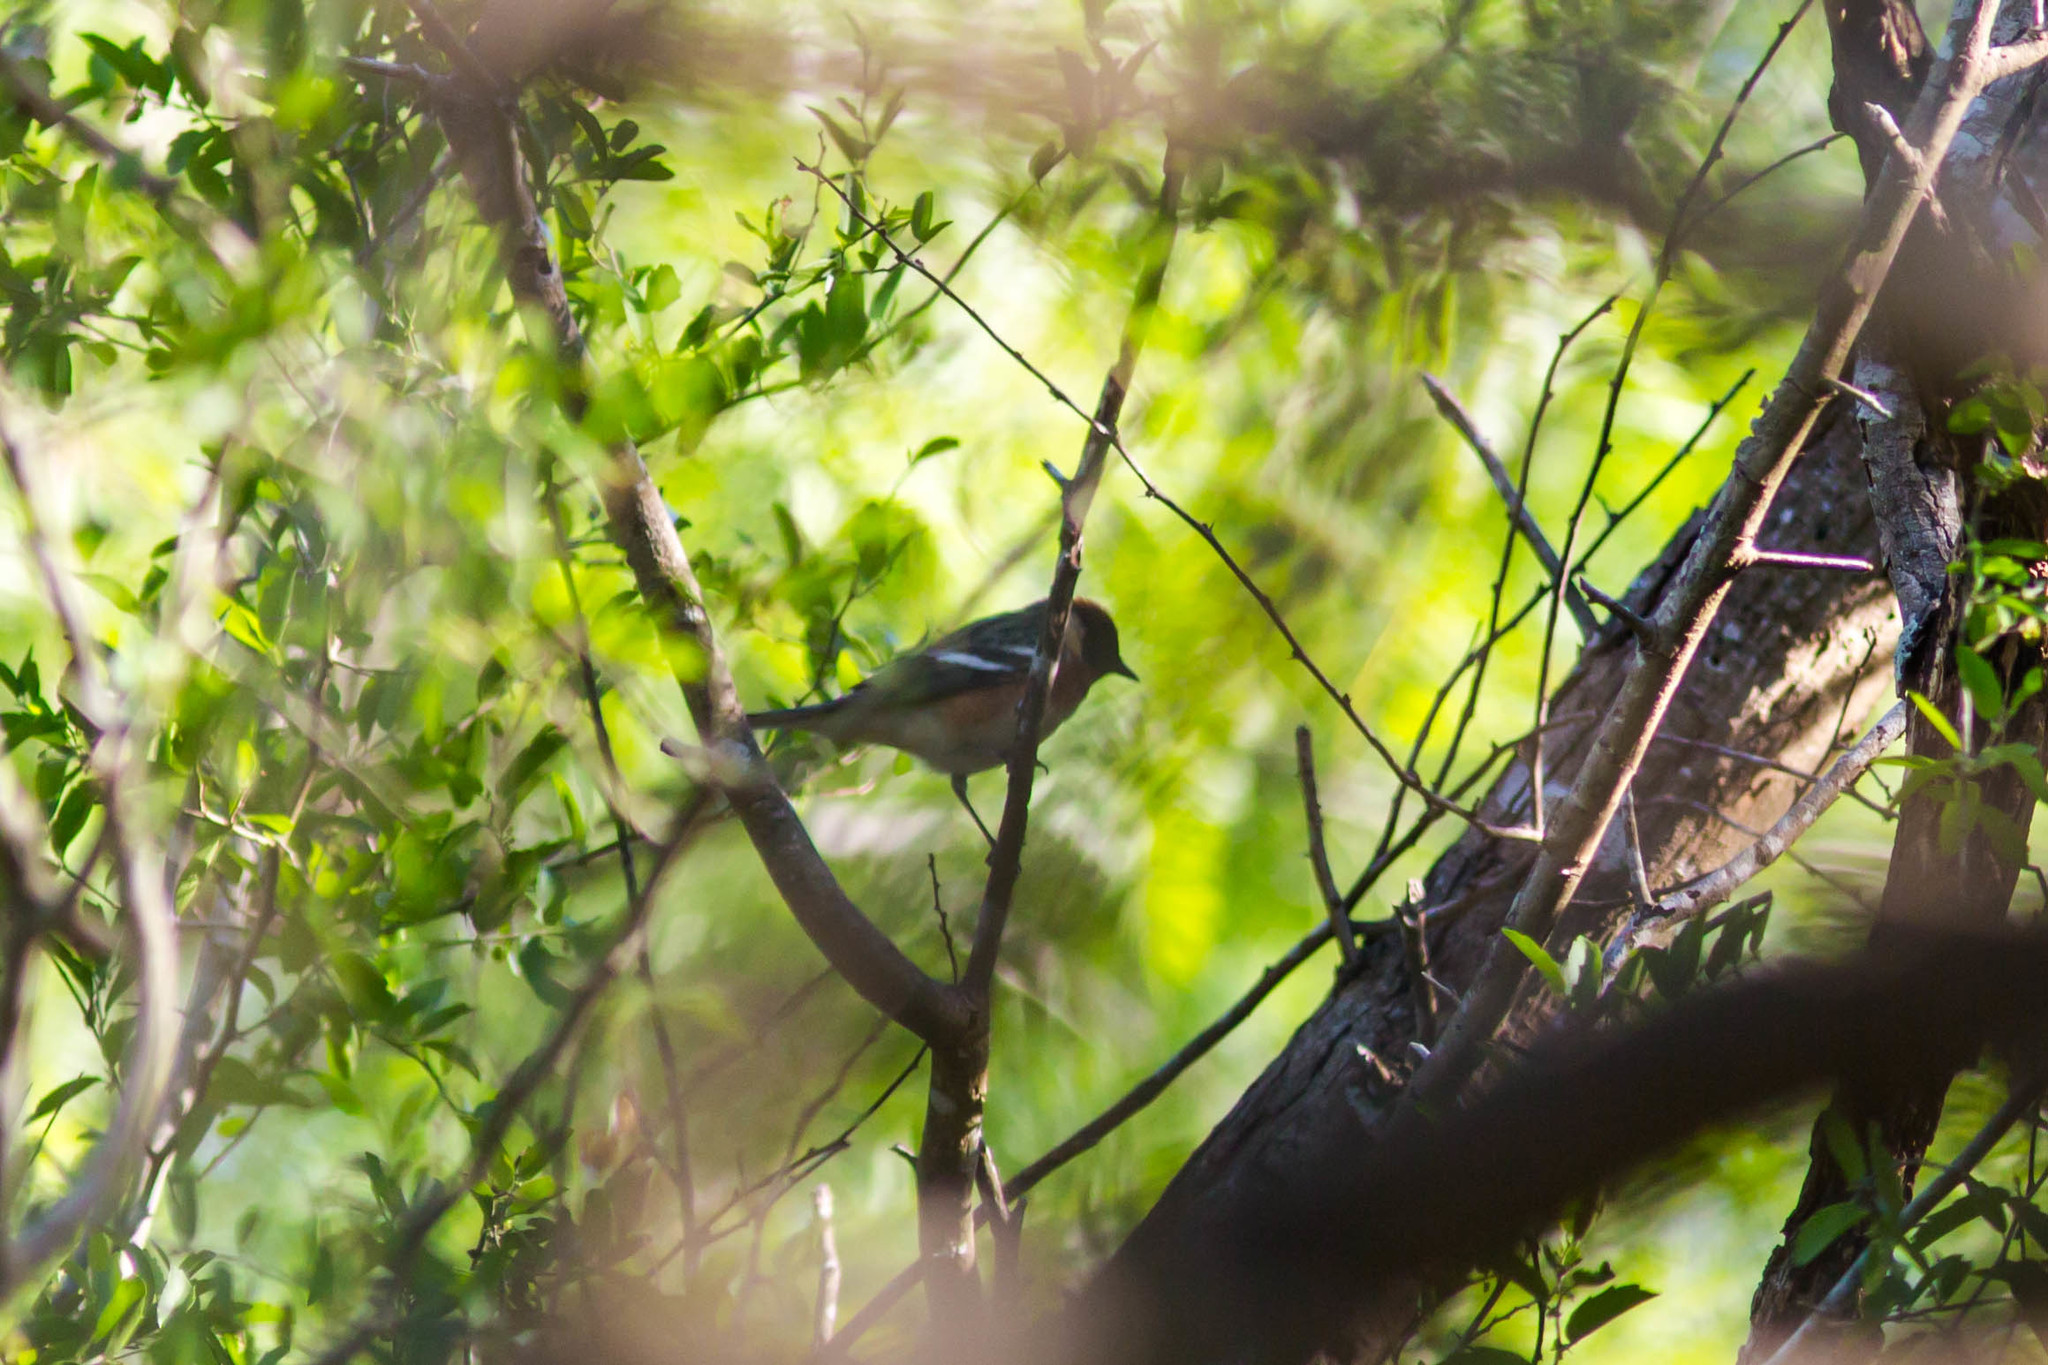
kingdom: Animalia
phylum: Chordata
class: Aves
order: Passeriformes
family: Parulidae
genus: Setophaga
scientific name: Setophaga castanea
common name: Bay-breasted warbler
